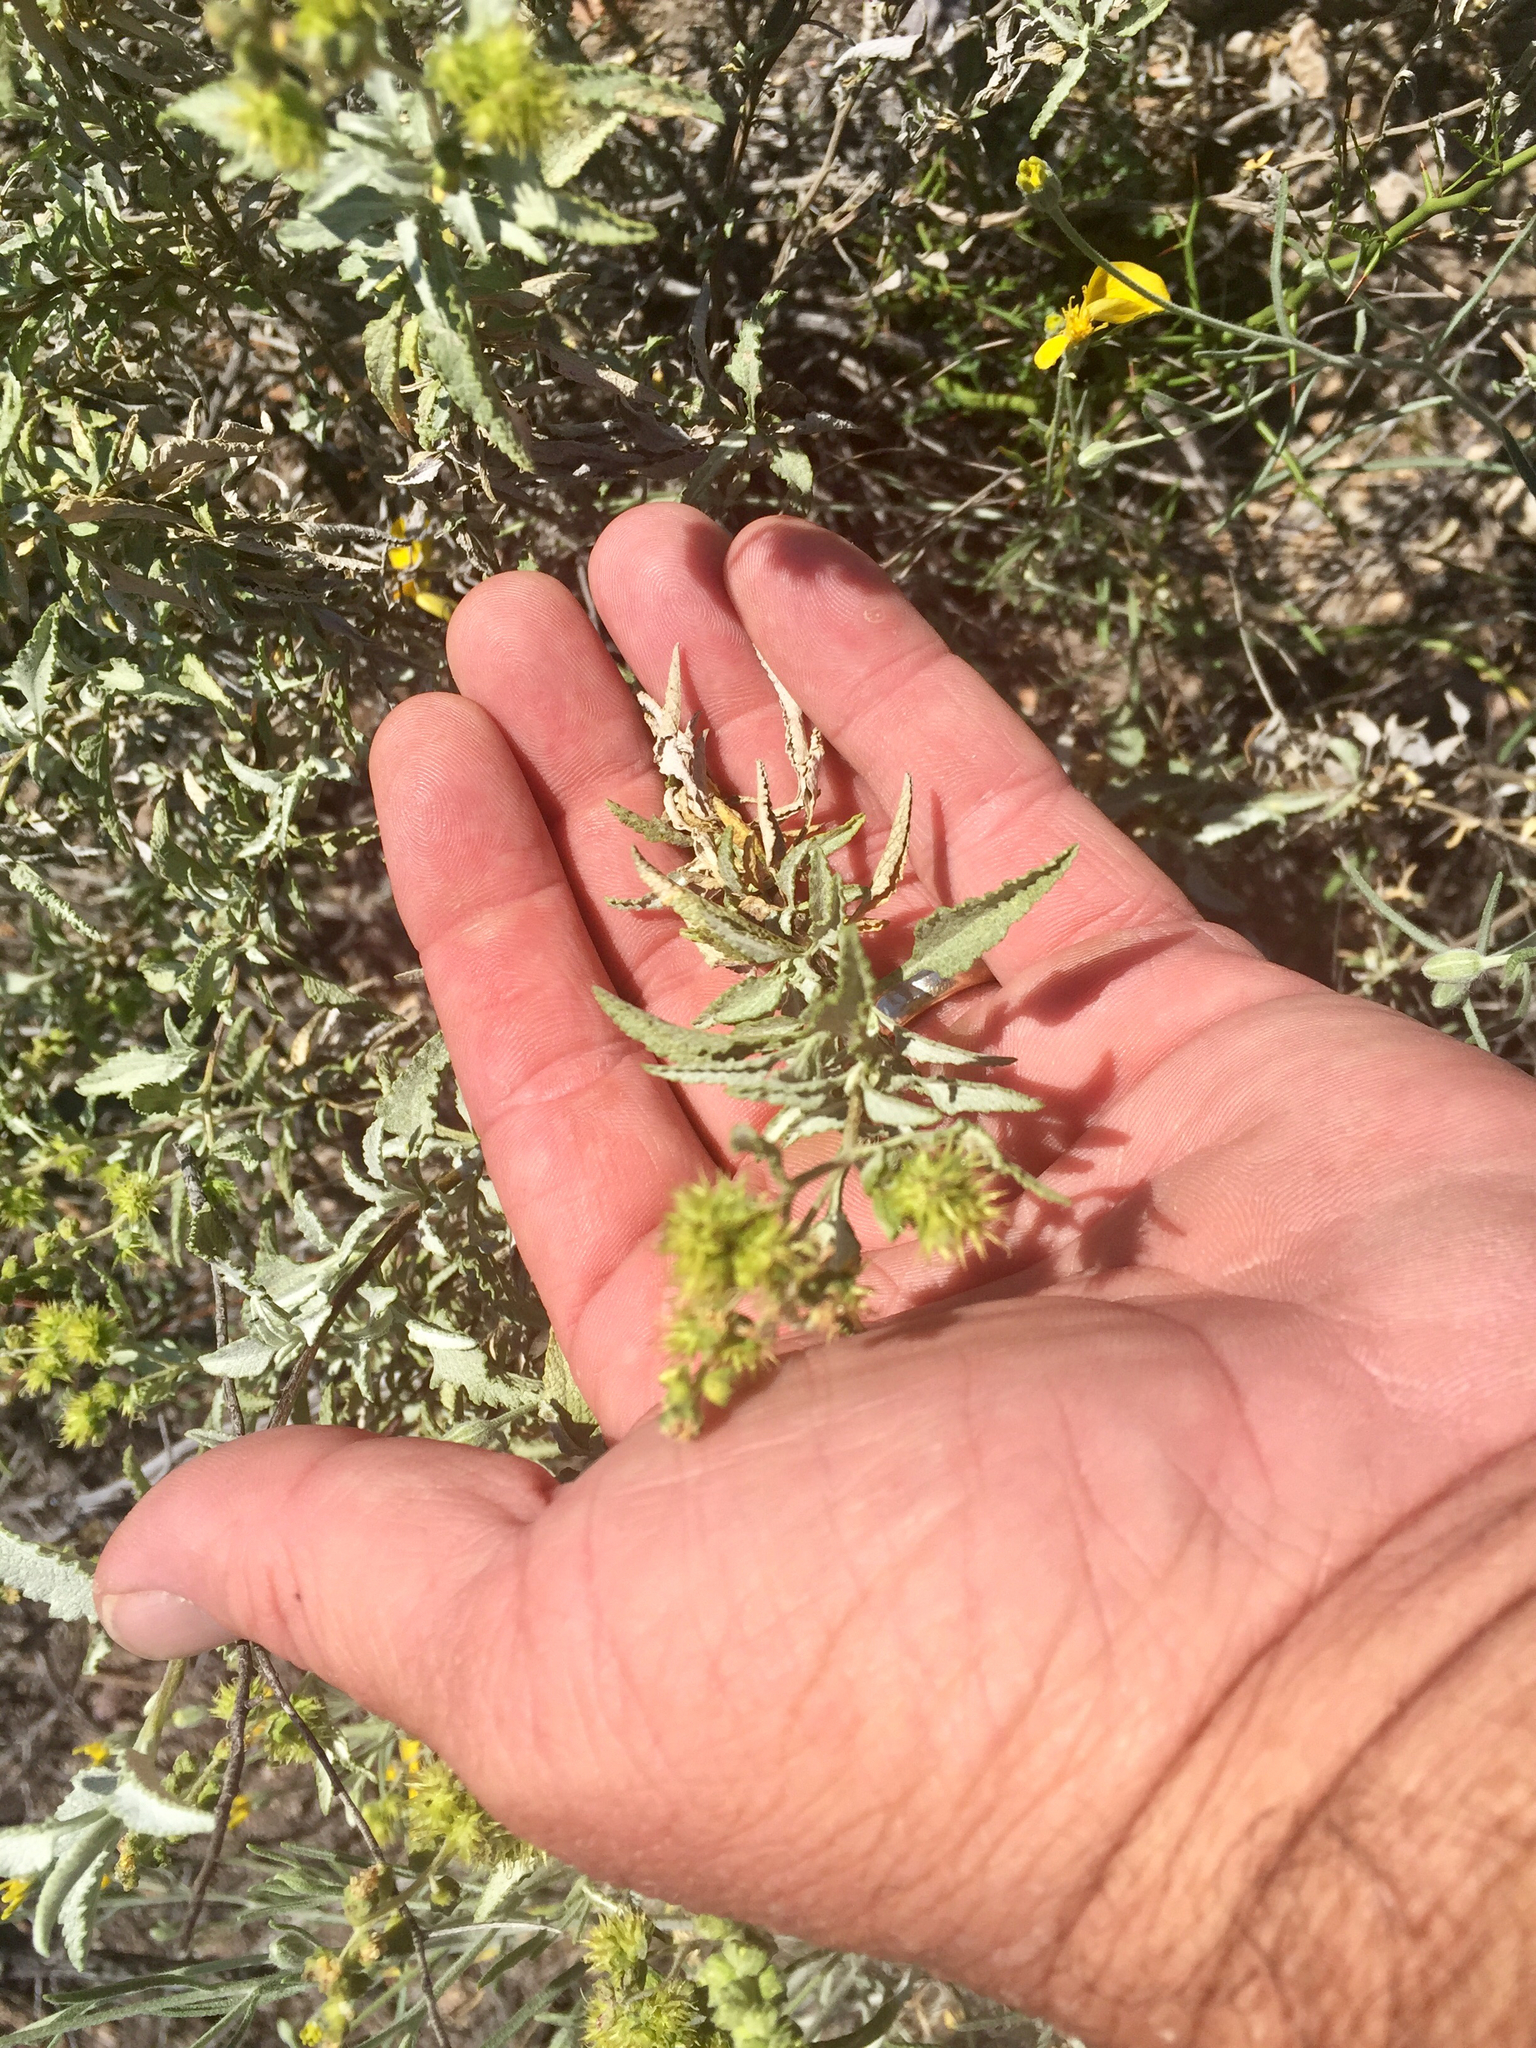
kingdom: Plantae
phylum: Tracheophyta
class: Magnoliopsida
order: Asterales
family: Asteraceae
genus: Ambrosia
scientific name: Ambrosia deltoidea
